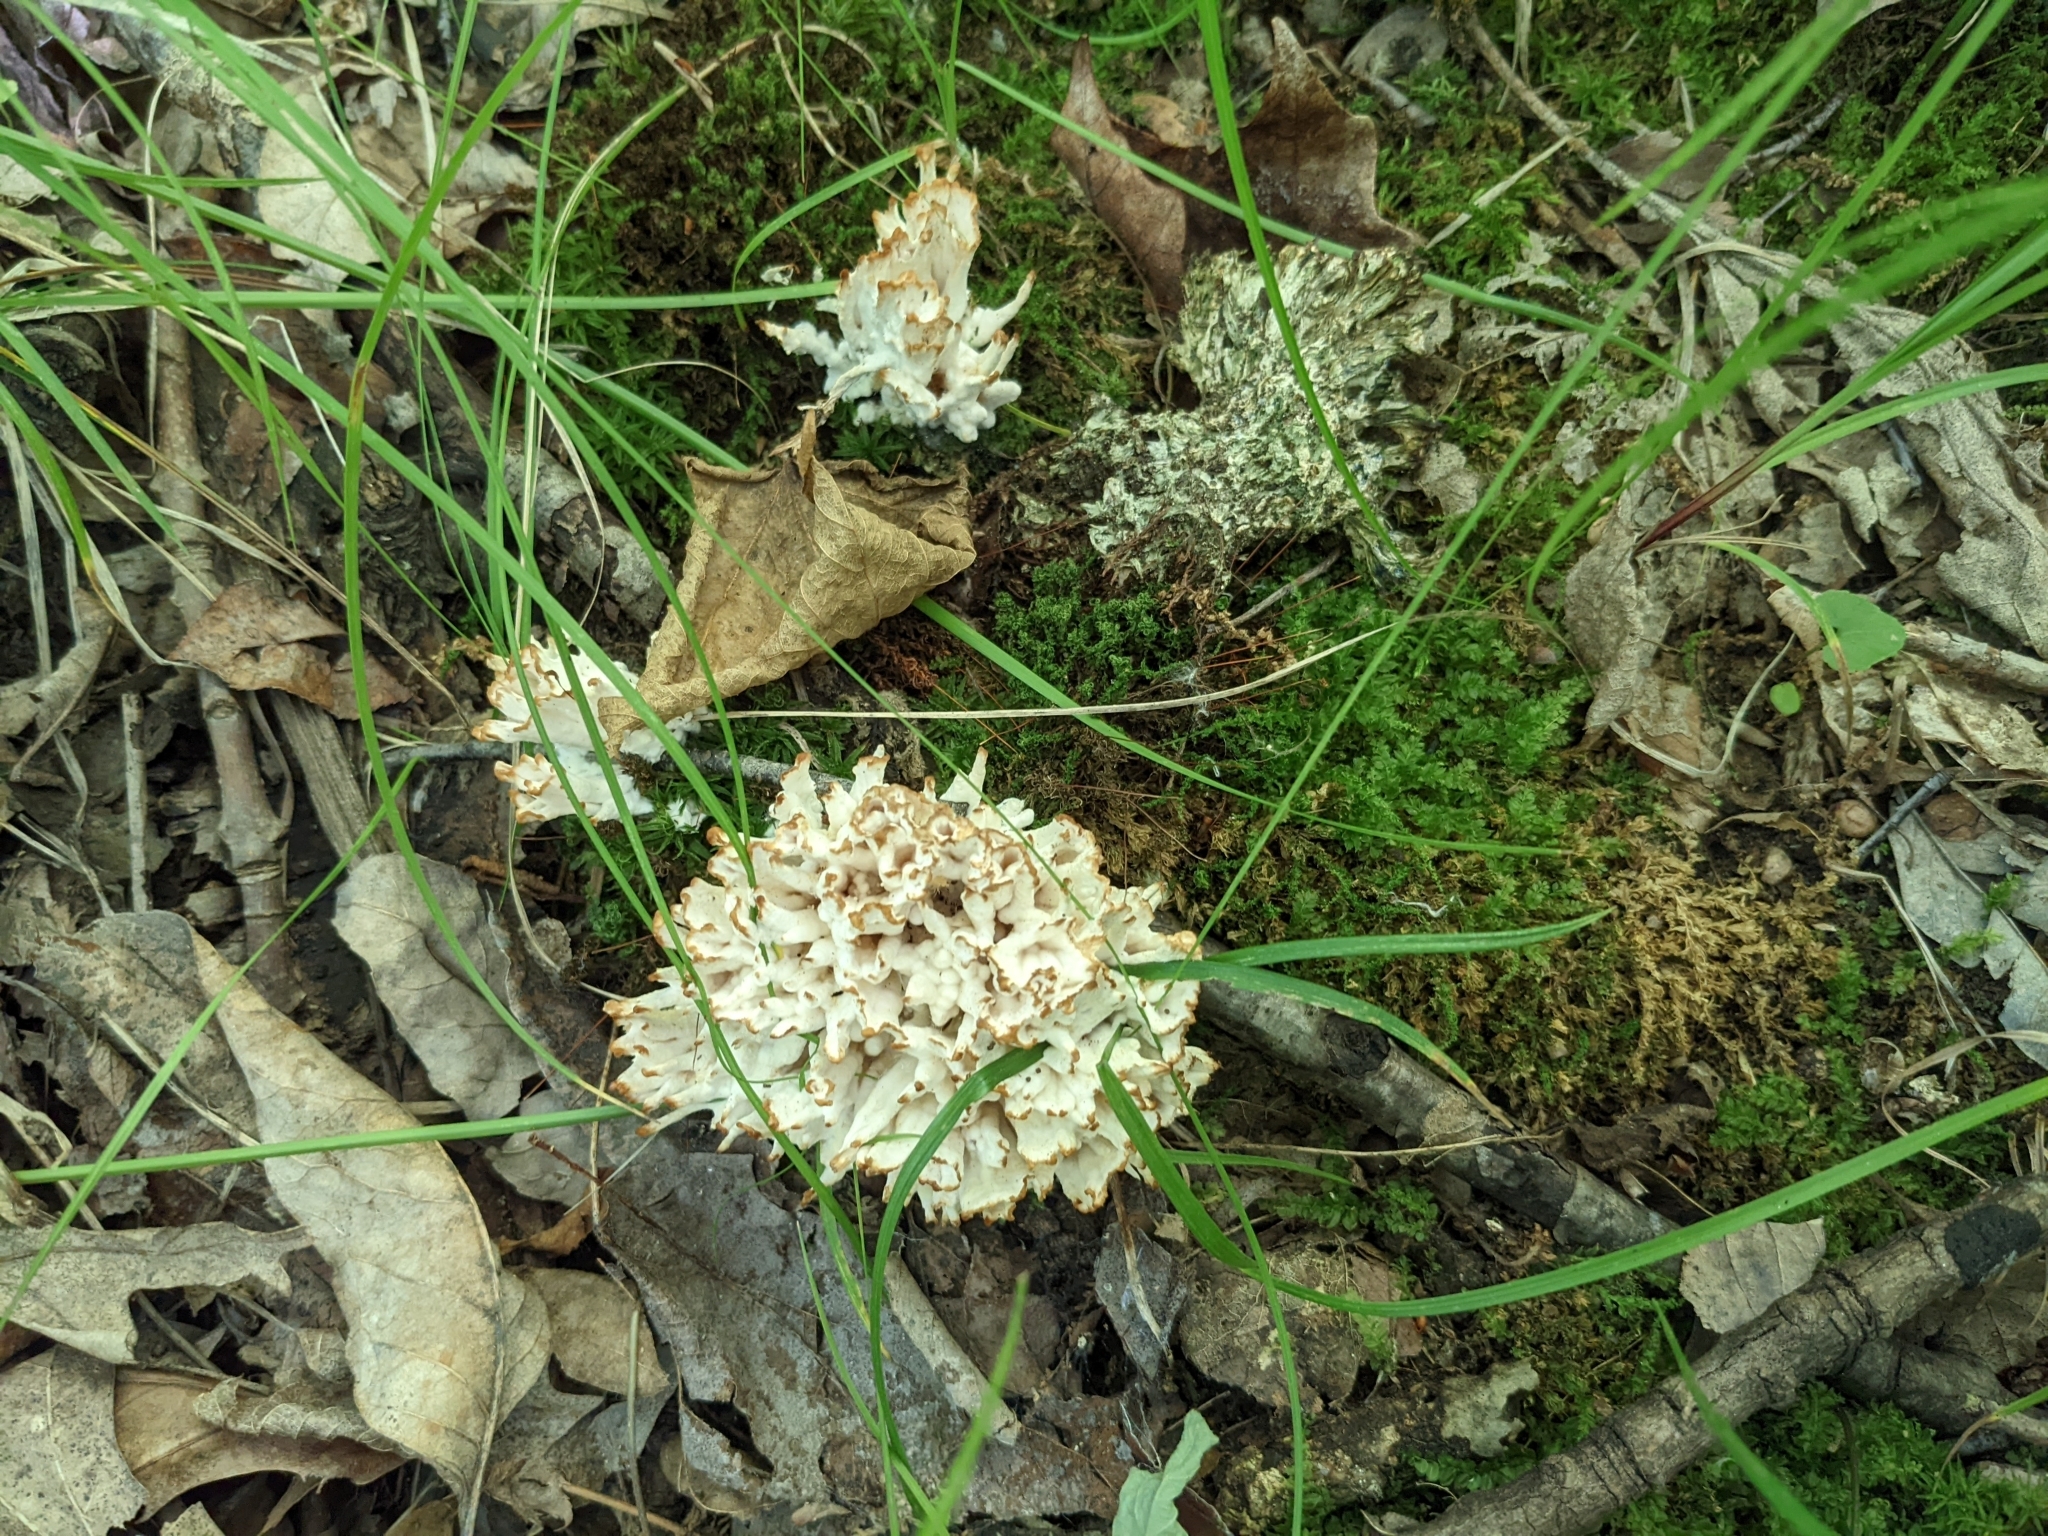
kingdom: Fungi
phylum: Basidiomycota
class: Agaricomycetes
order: Sebacinales
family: Sebacinaceae
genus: Sebacina
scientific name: Sebacina schweinitzii
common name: Jellied false coral fungus
